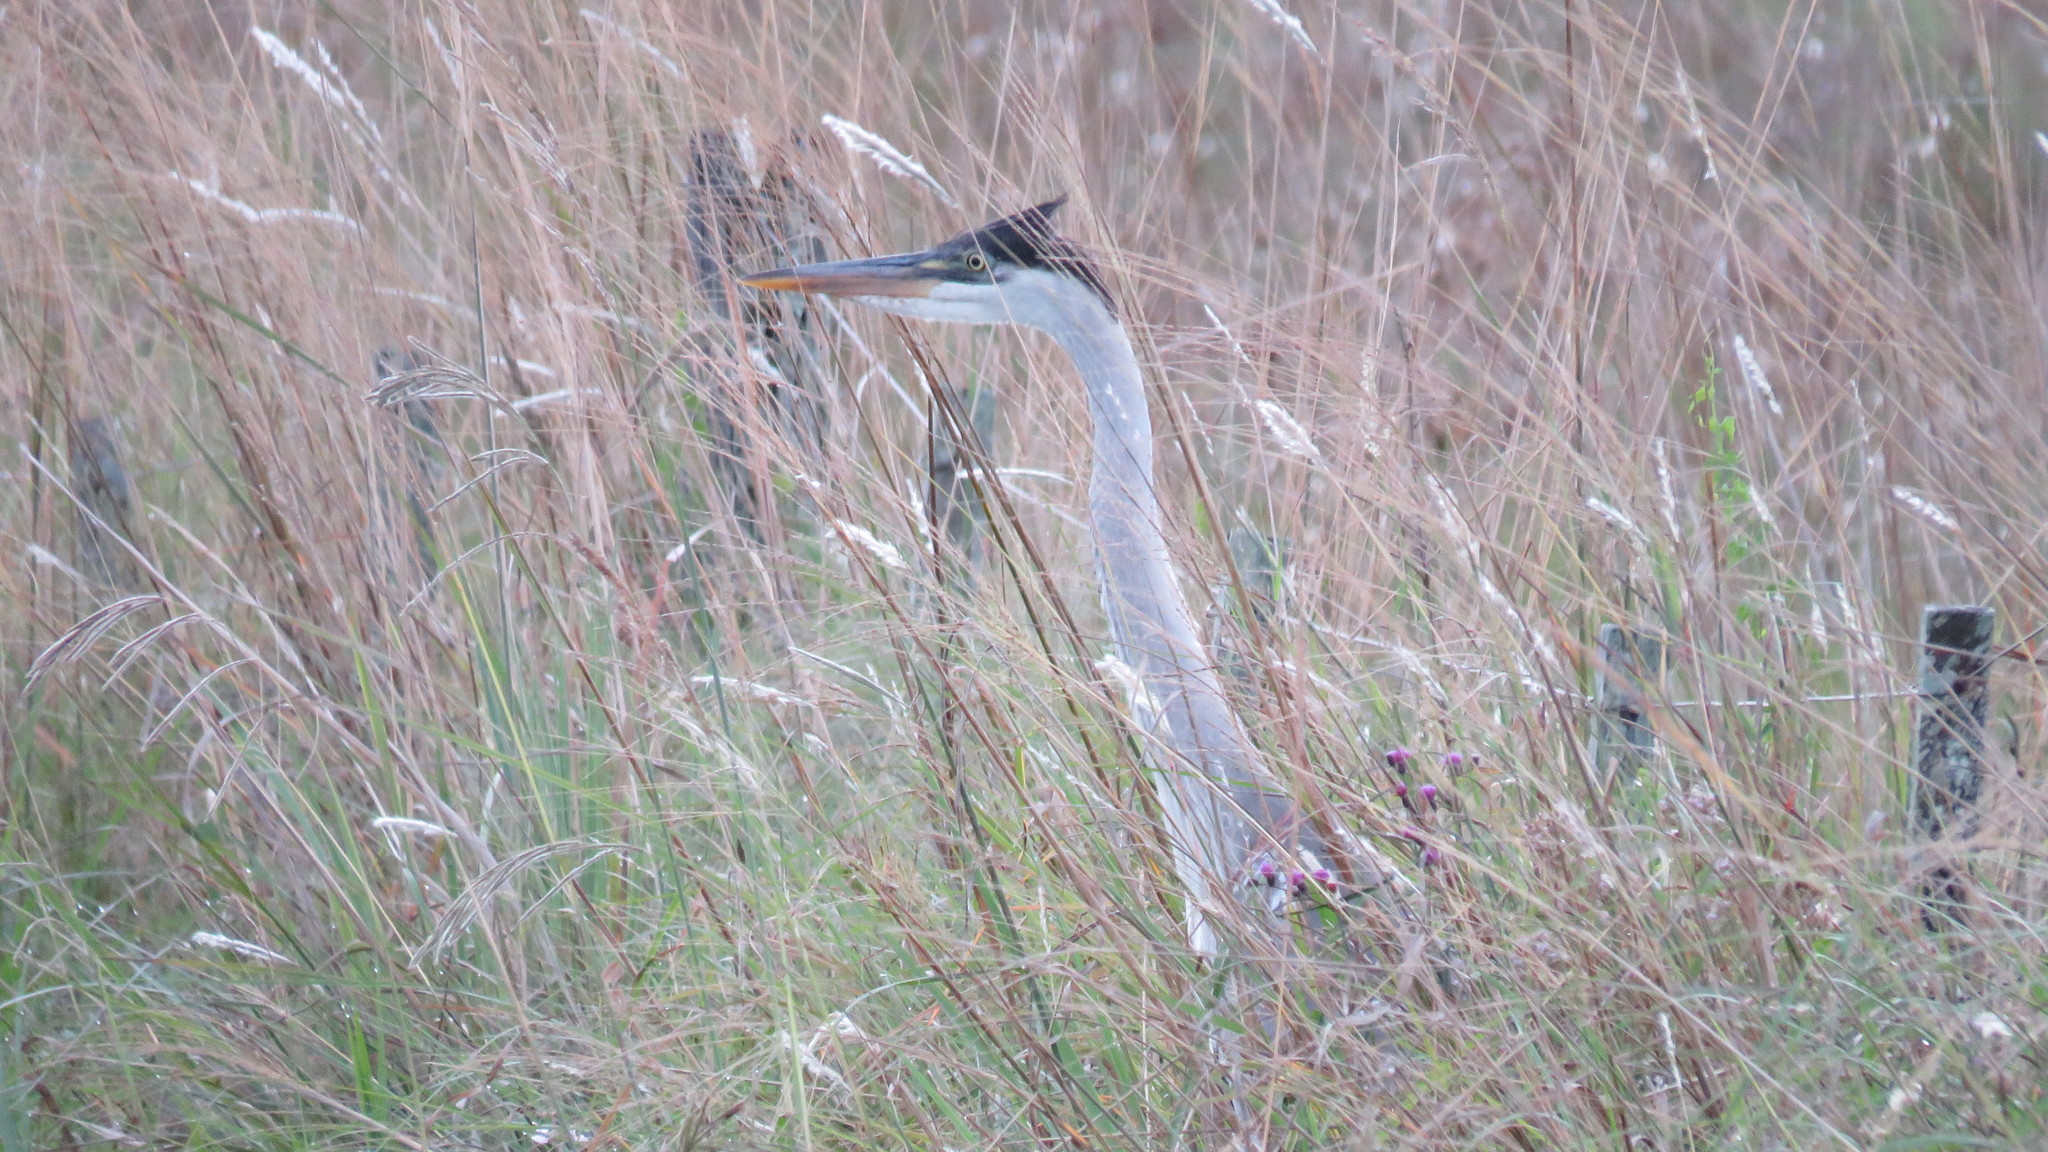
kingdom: Animalia
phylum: Chordata
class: Aves
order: Pelecaniformes
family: Ardeidae
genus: Ardea
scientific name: Ardea cocoi
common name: Cocoi heron
